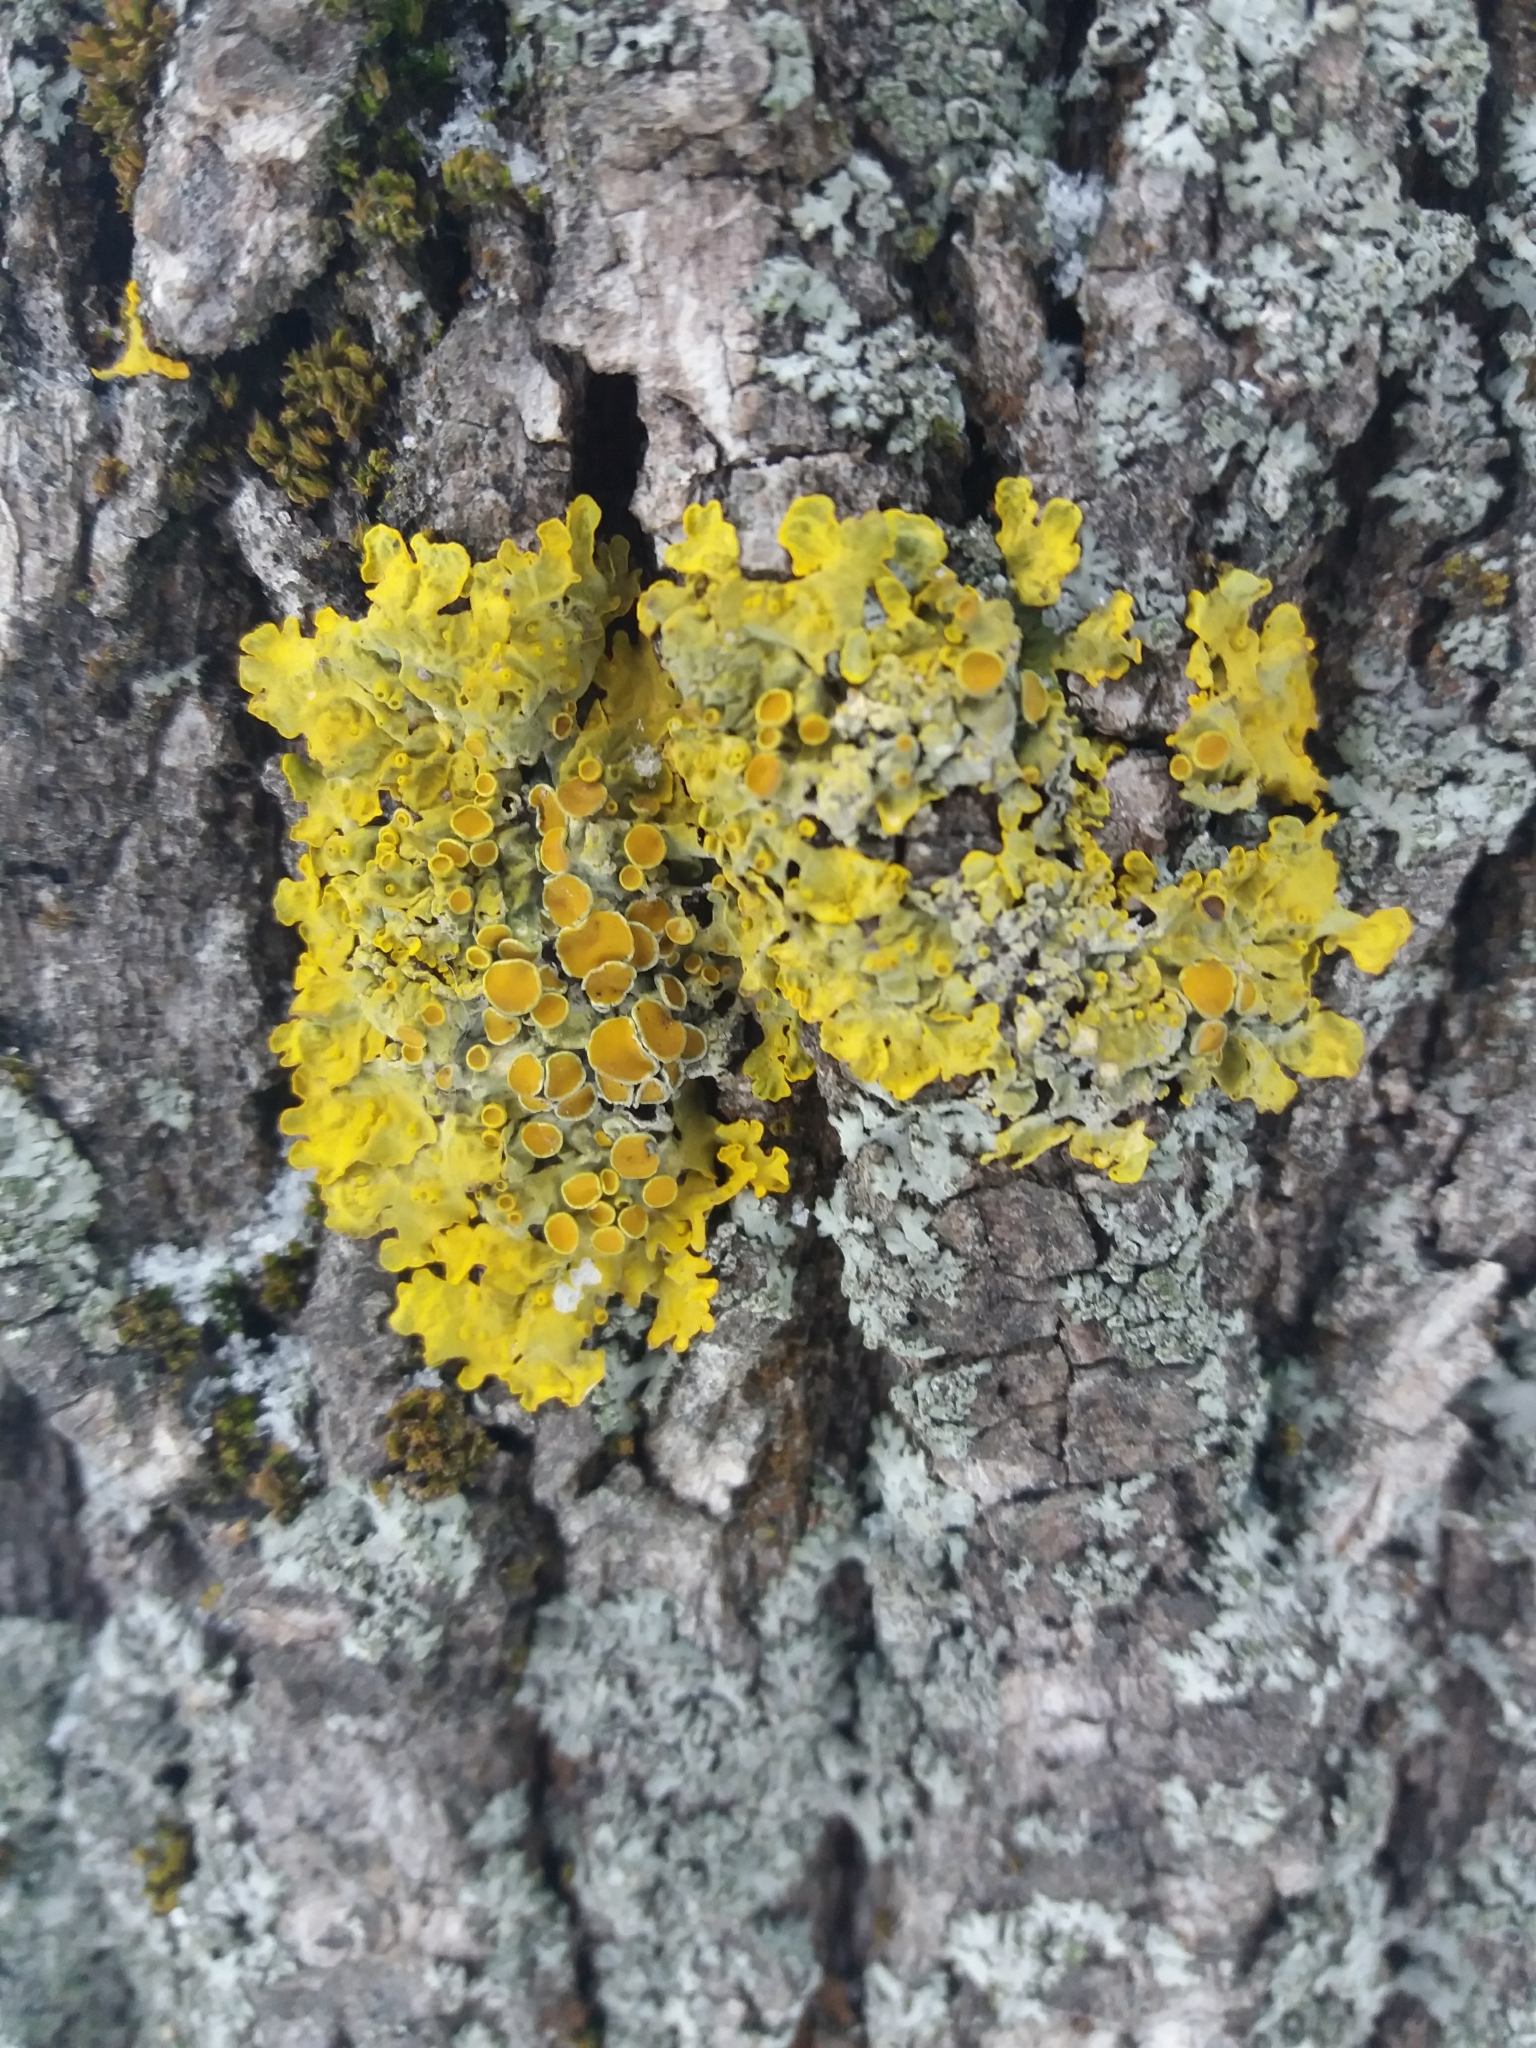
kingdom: Fungi
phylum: Ascomycota
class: Lecanoromycetes
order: Teloschistales
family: Teloschistaceae
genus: Xanthoria
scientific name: Xanthoria parietina
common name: Common orange lichen
